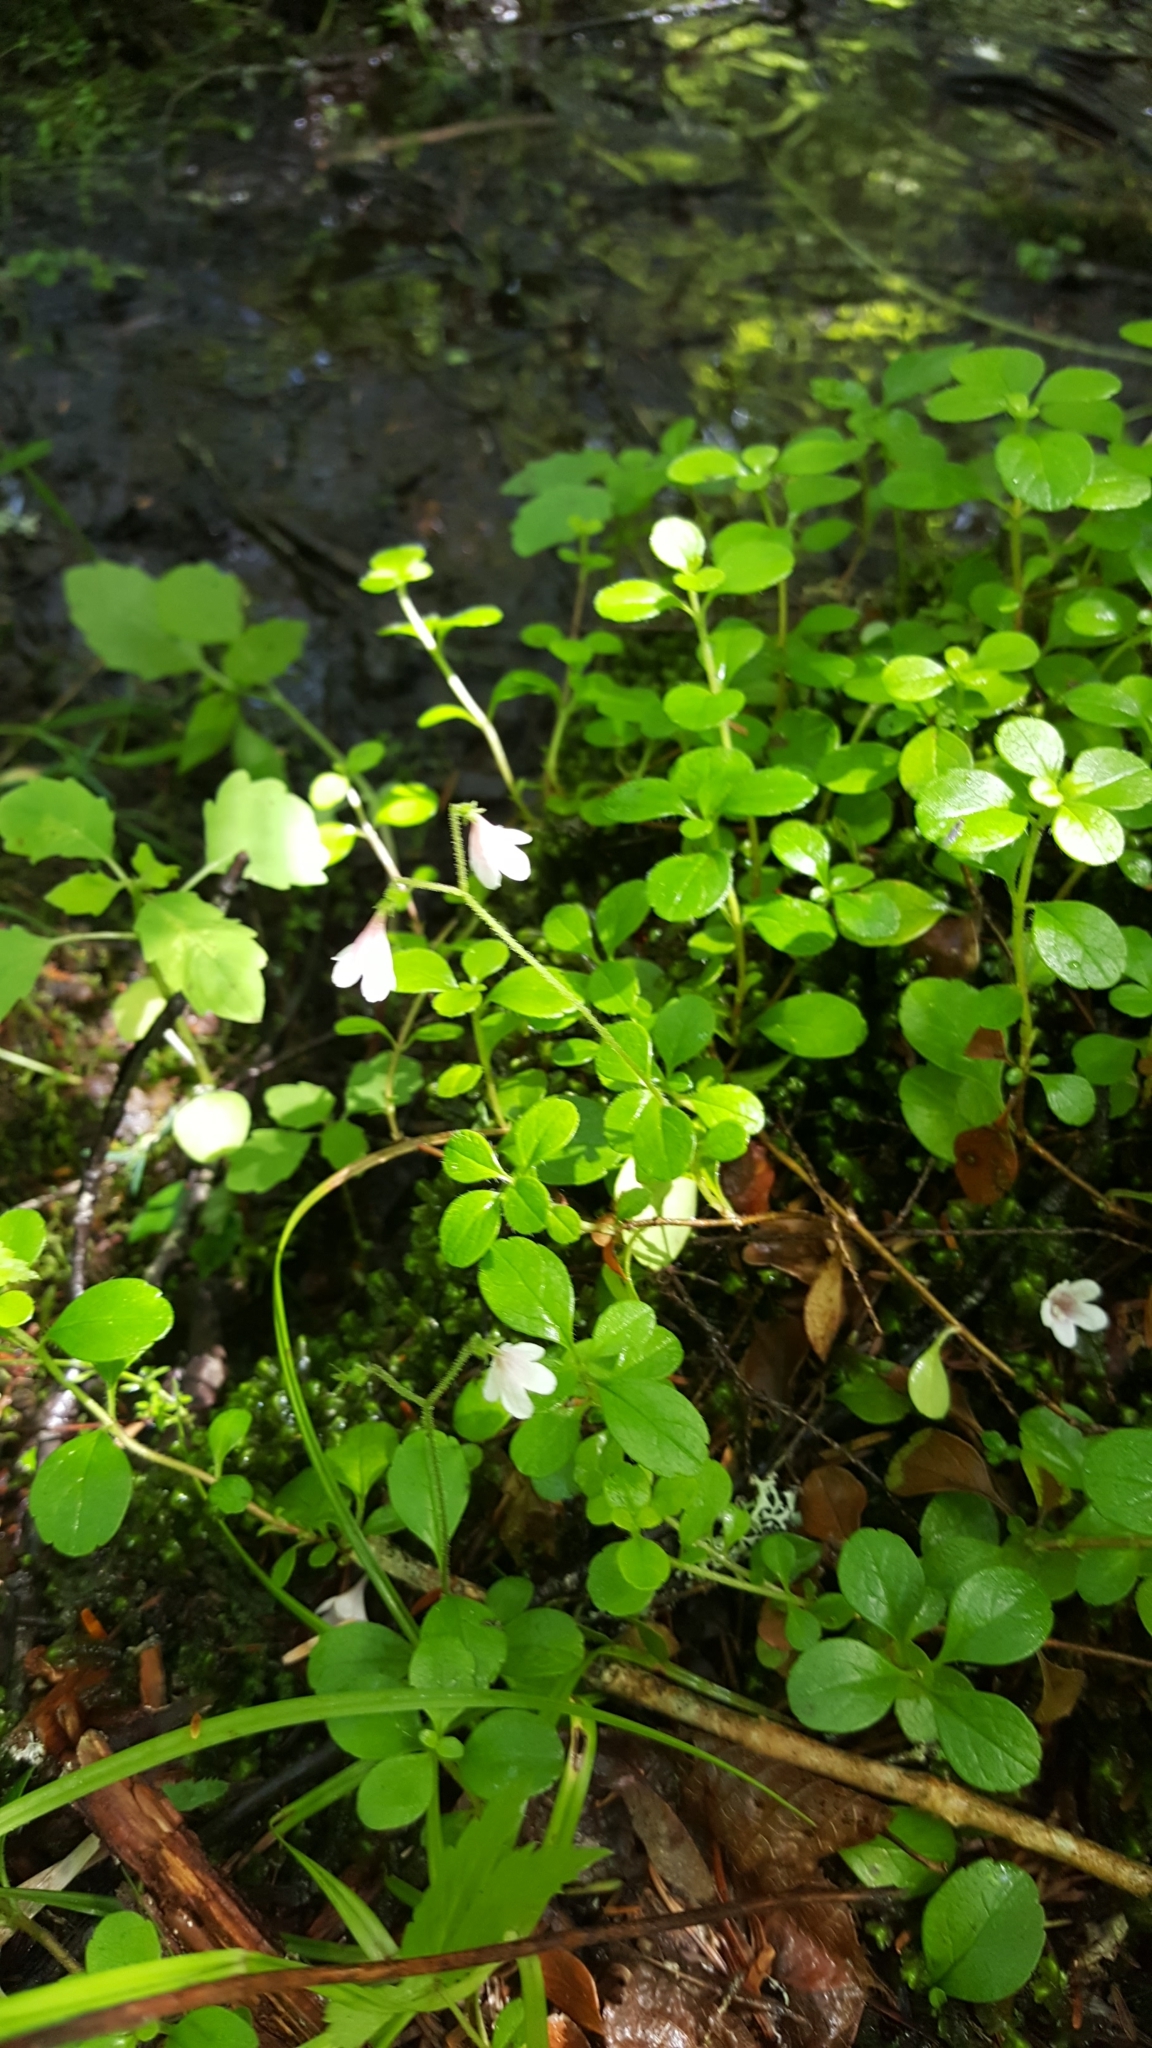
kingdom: Plantae
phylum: Tracheophyta
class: Magnoliopsida
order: Dipsacales
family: Caprifoliaceae
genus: Linnaea
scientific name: Linnaea borealis
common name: Twinflower
